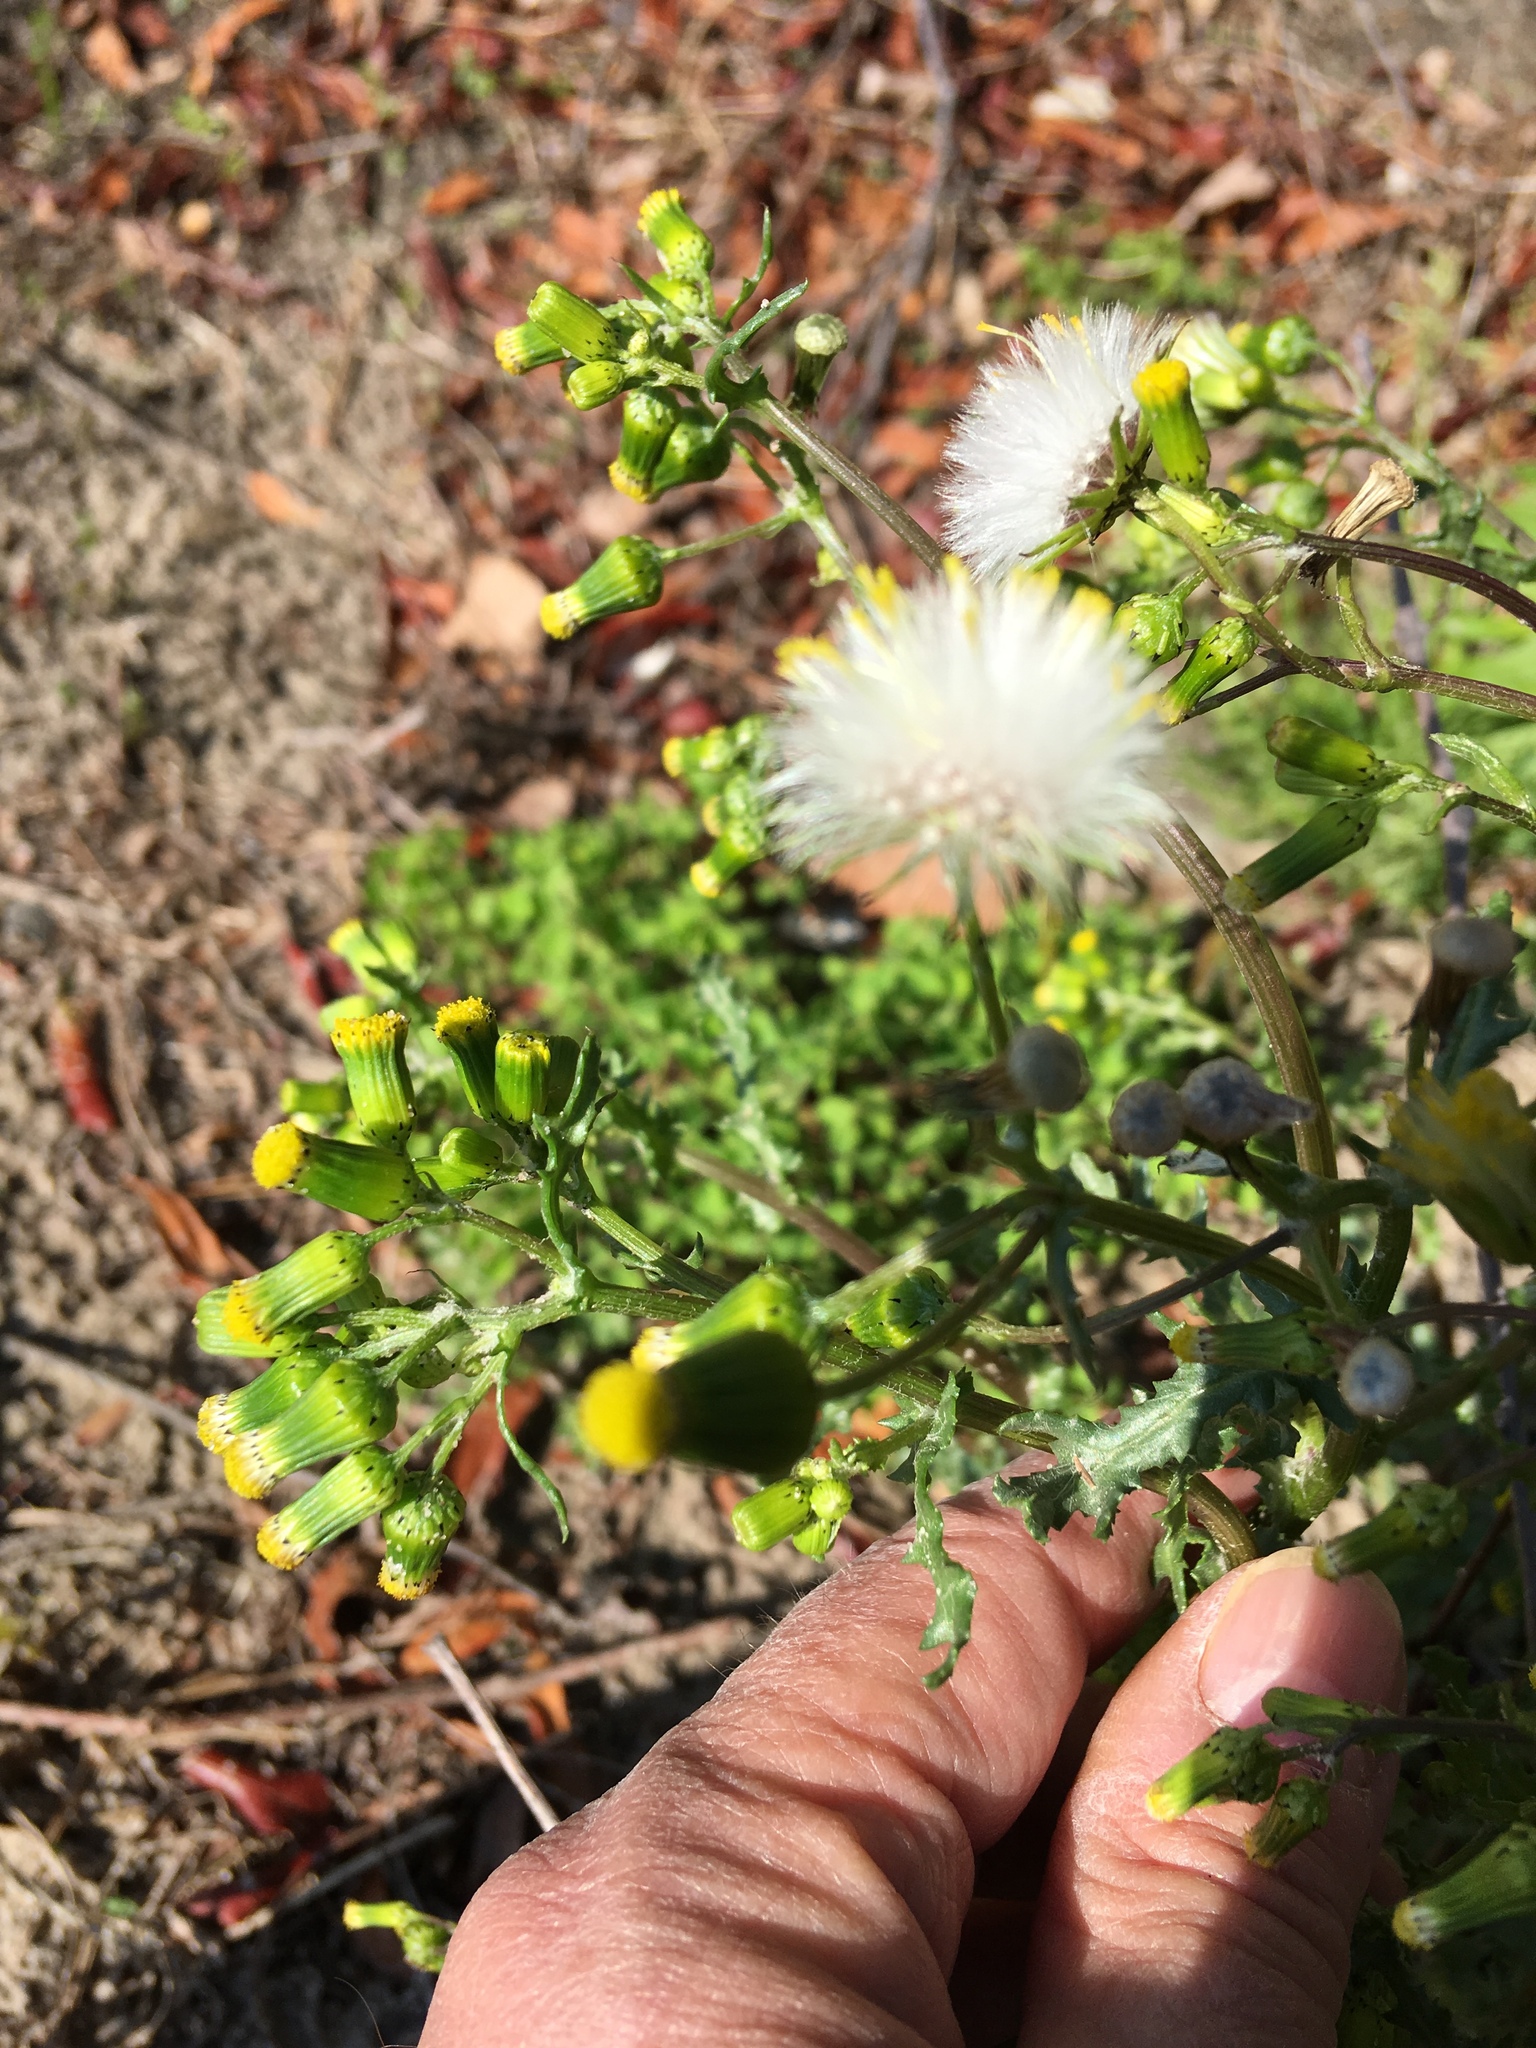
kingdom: Plantae
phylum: Tracheophyta
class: Magnoliopsida
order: Asterales
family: Asteraceae
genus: Senecio
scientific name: Senecio vulgaris
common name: Old-man-in-the-spring
